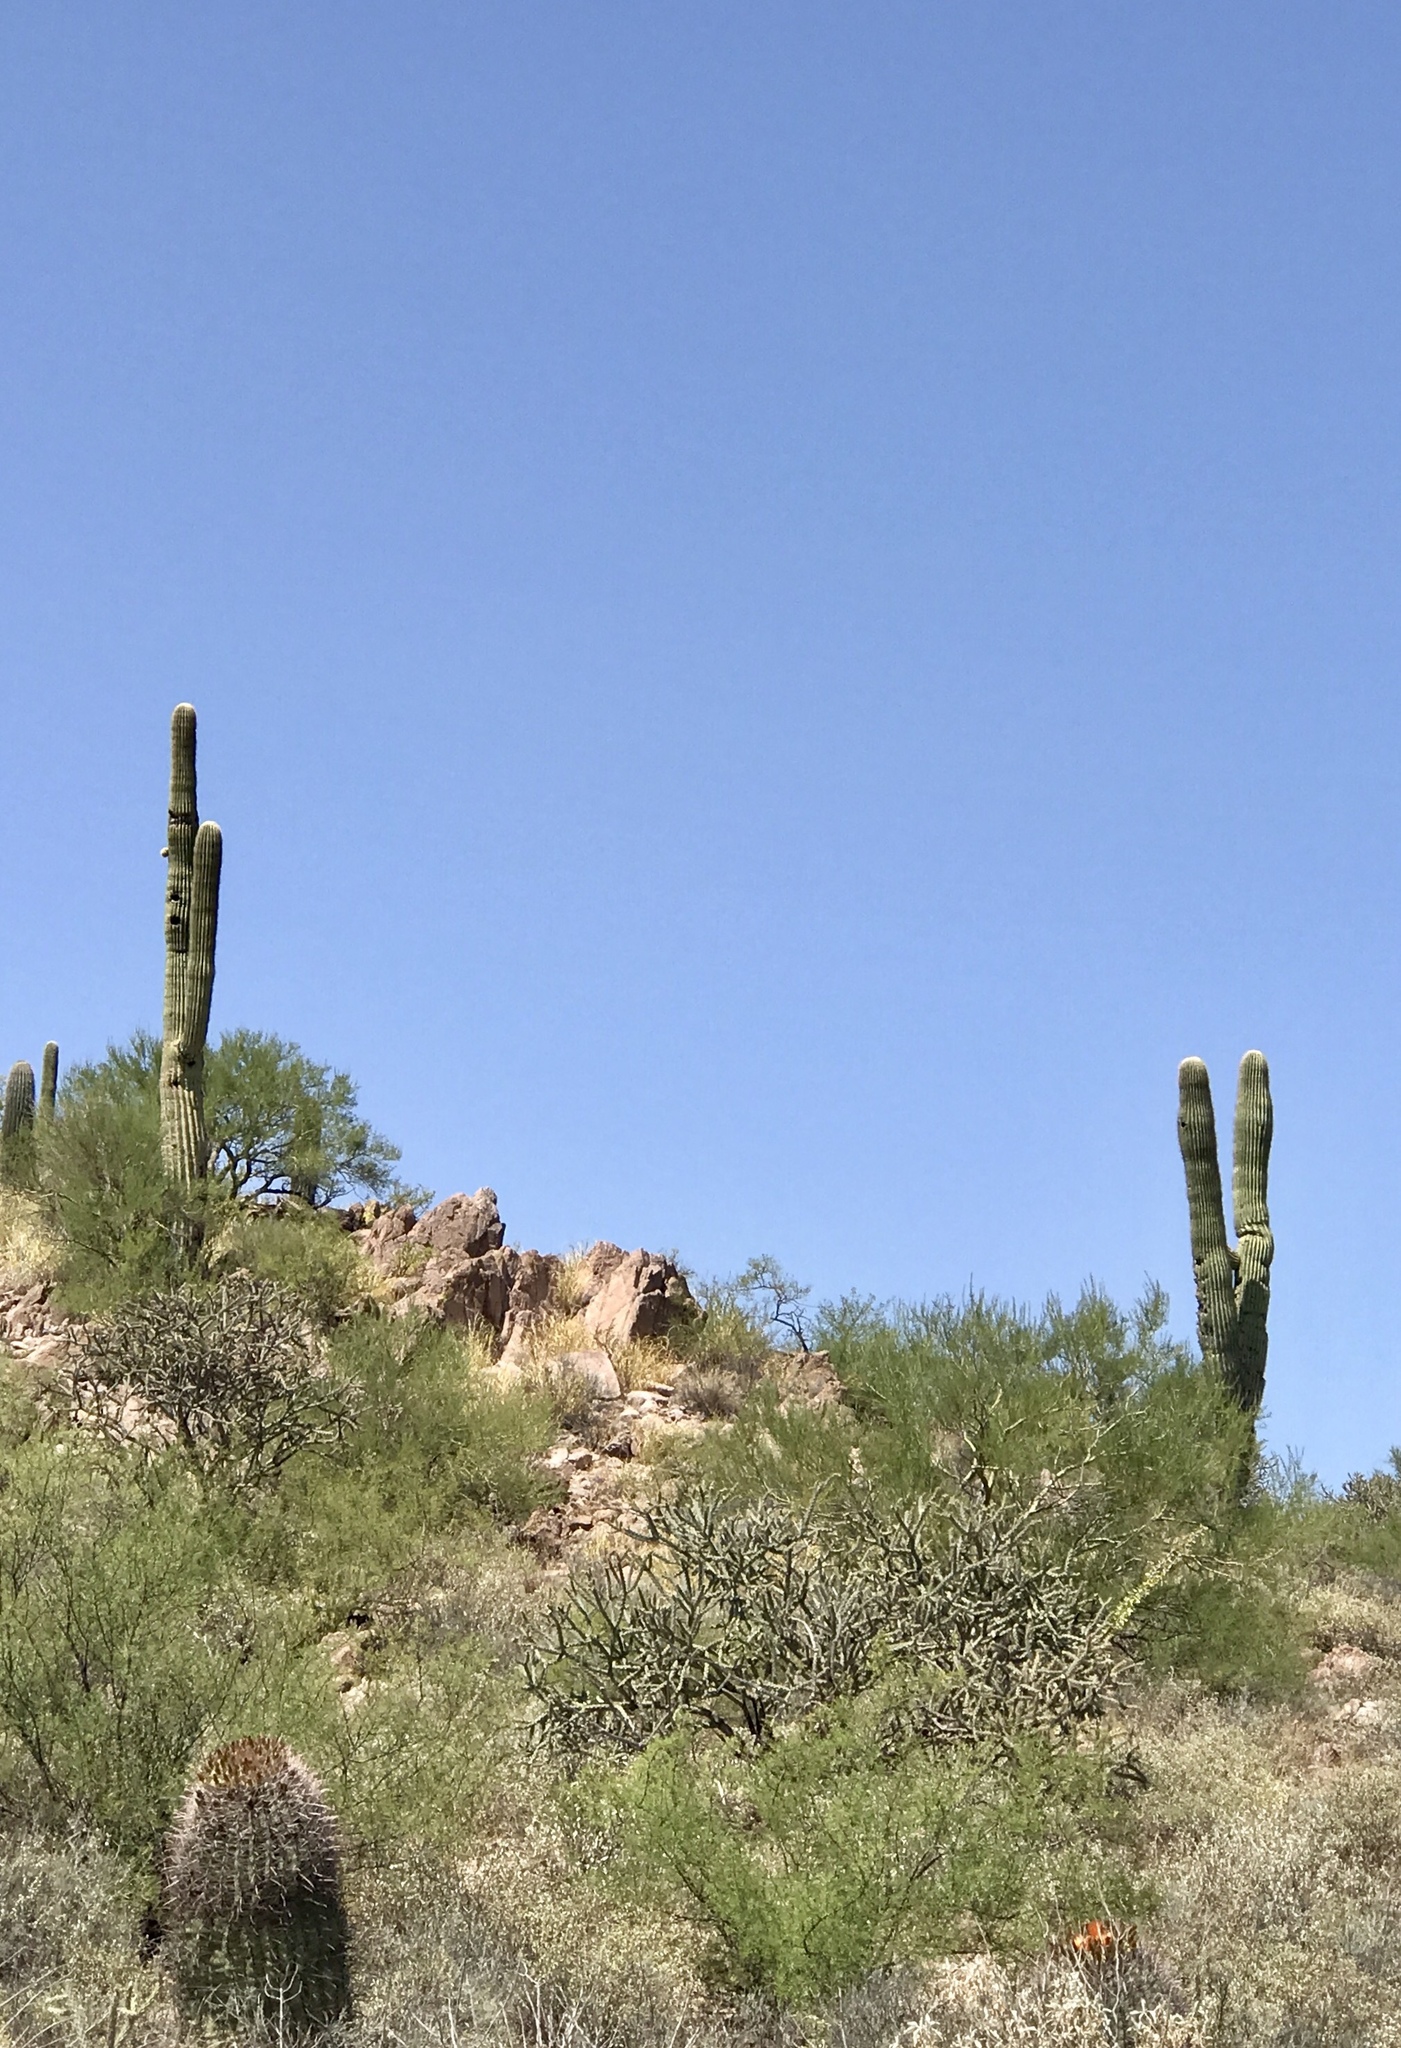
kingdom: Plantae
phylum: Tracheophyta
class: Magnoliopsida
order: Caryophyllales
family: Cactaceae
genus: Carnegiea
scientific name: Carnegiea gigantea
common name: Saguaro
